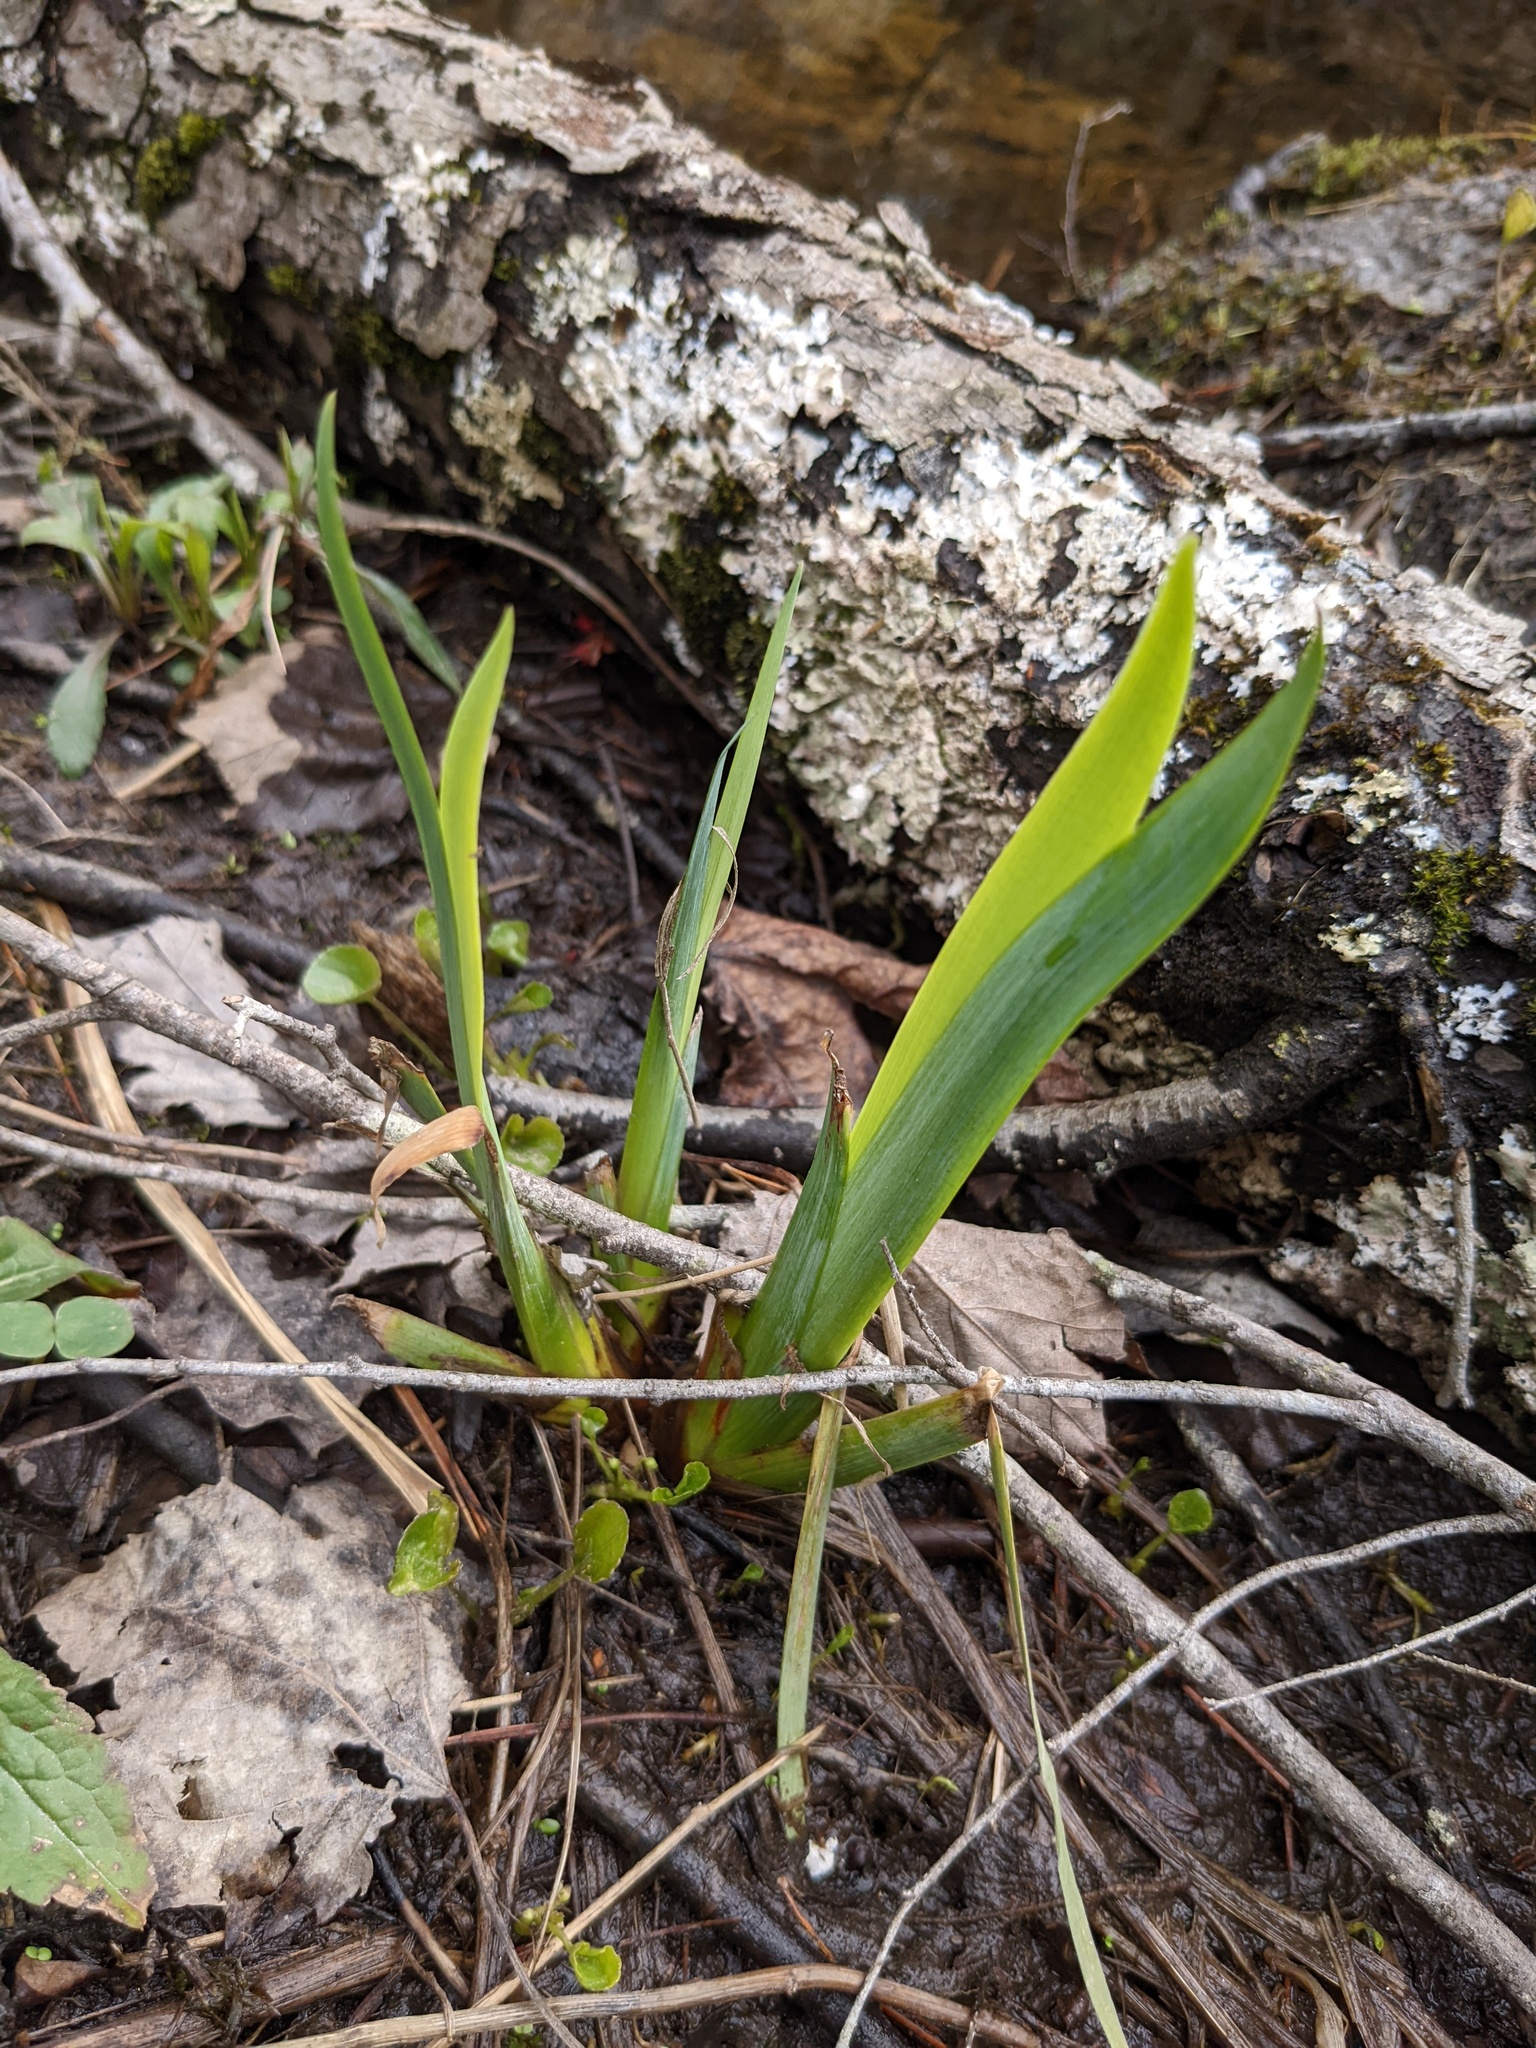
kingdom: Plantae
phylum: Tracheophyta
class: Liliopsida
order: Asparagales
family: Iridaceae
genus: Iris
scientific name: Iris versicolor
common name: Purple iris
